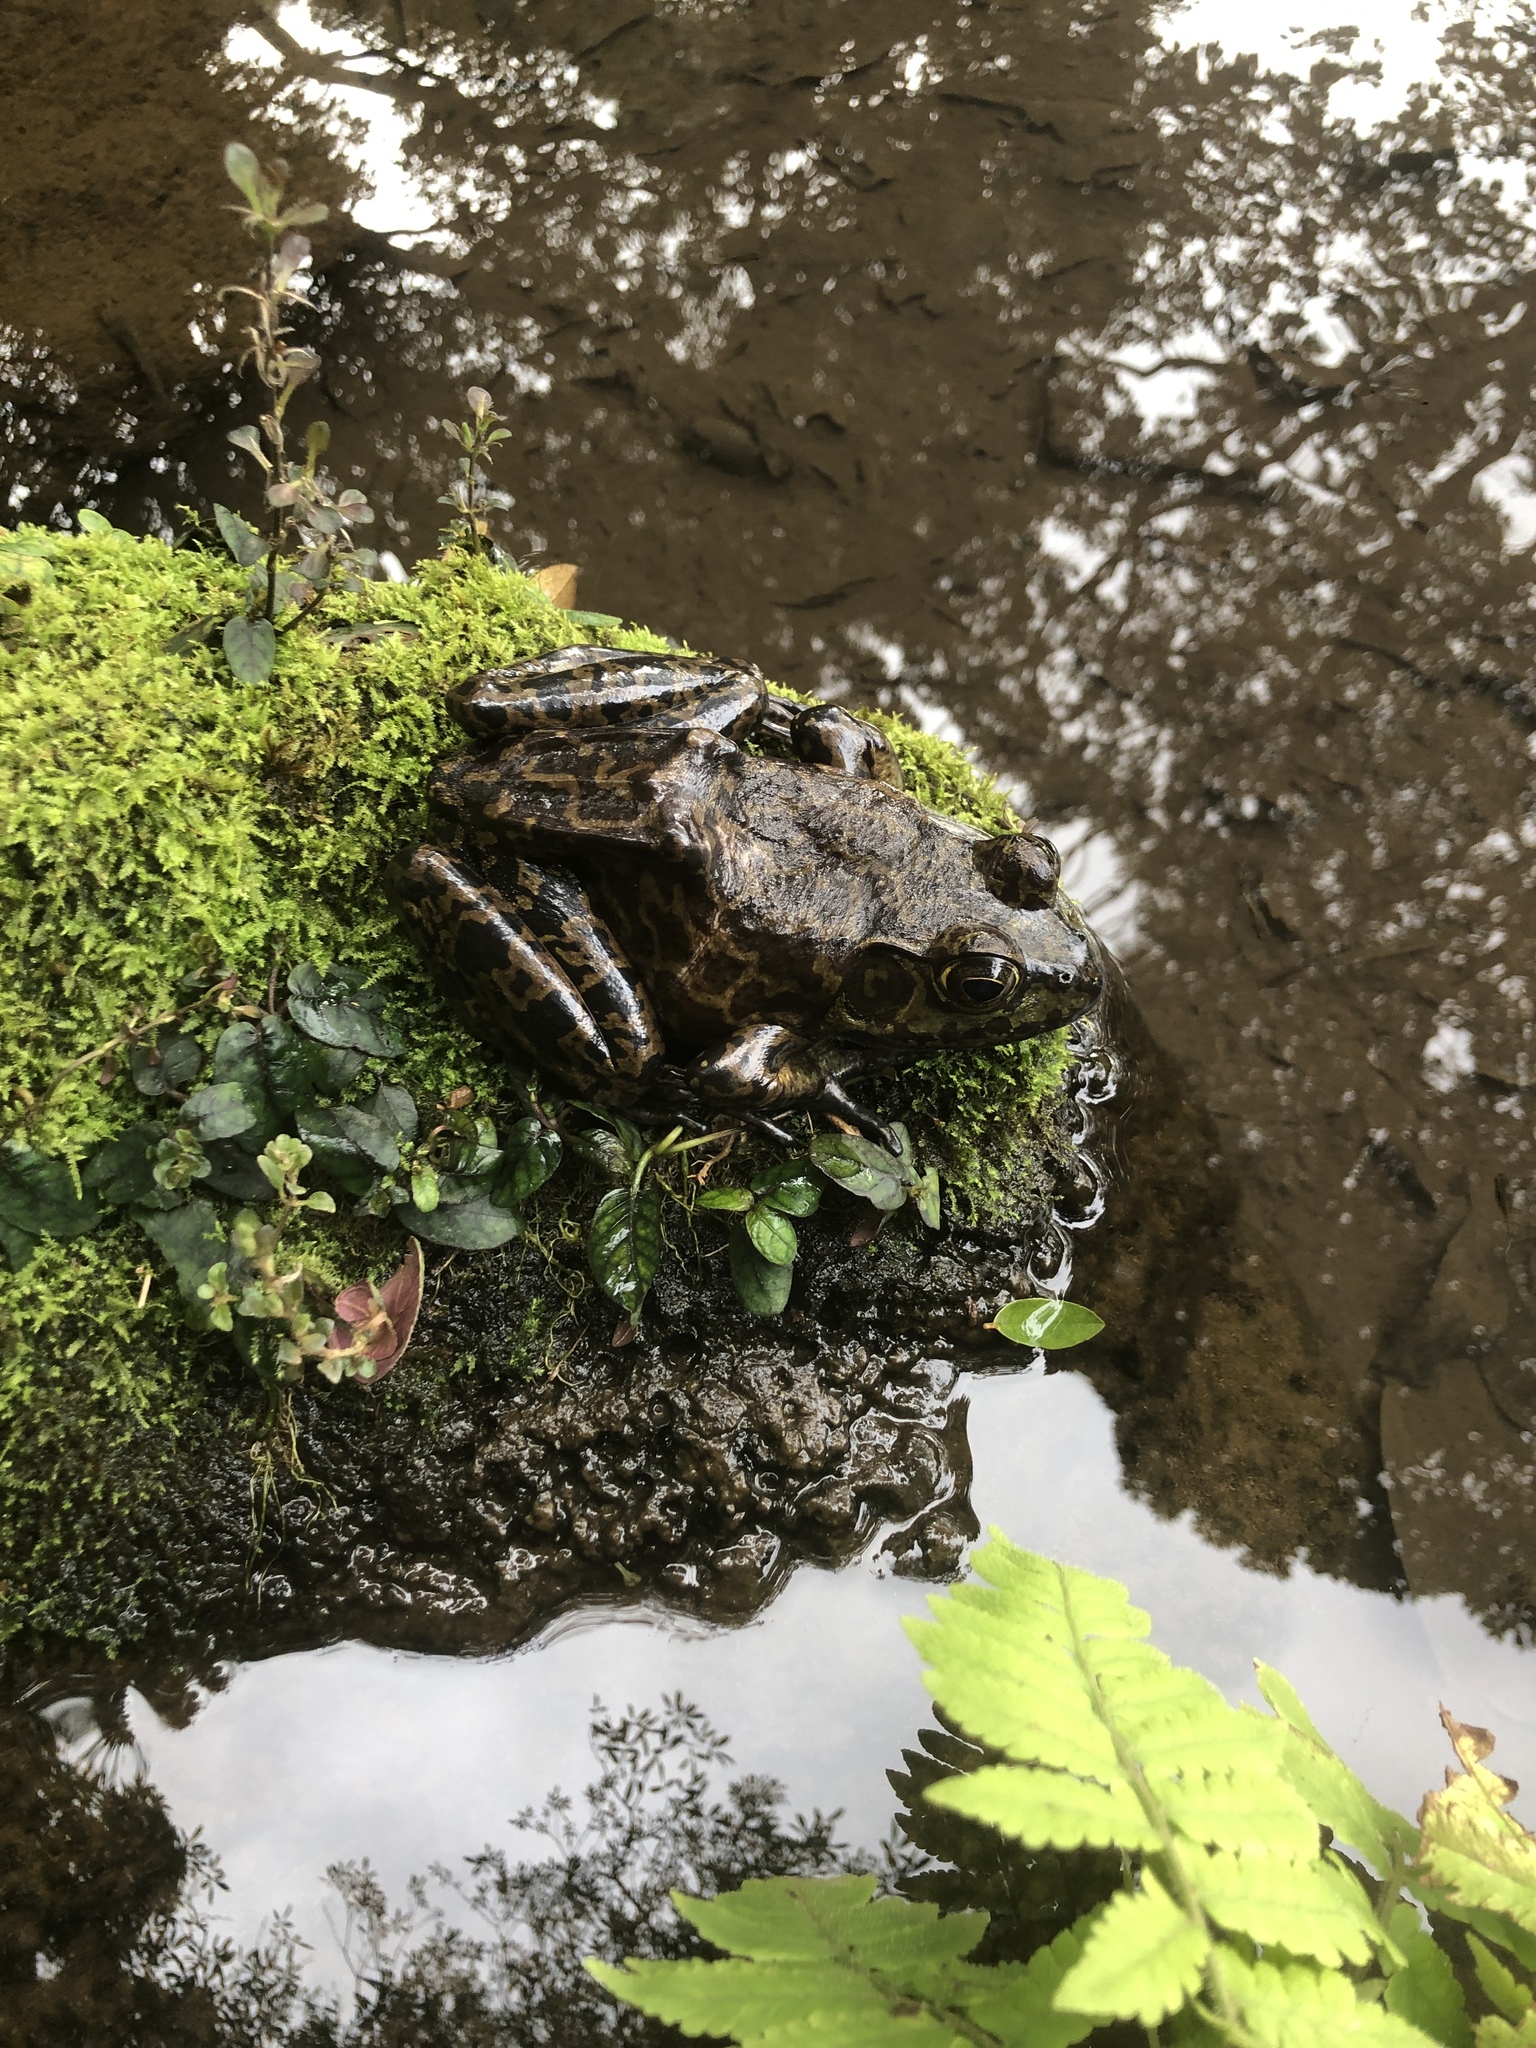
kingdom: Animalia
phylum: Chordata
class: Amphibia
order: Anura
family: Ranidae
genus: Lithobates
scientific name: Lithobates catesbeianus
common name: American bullfrog
